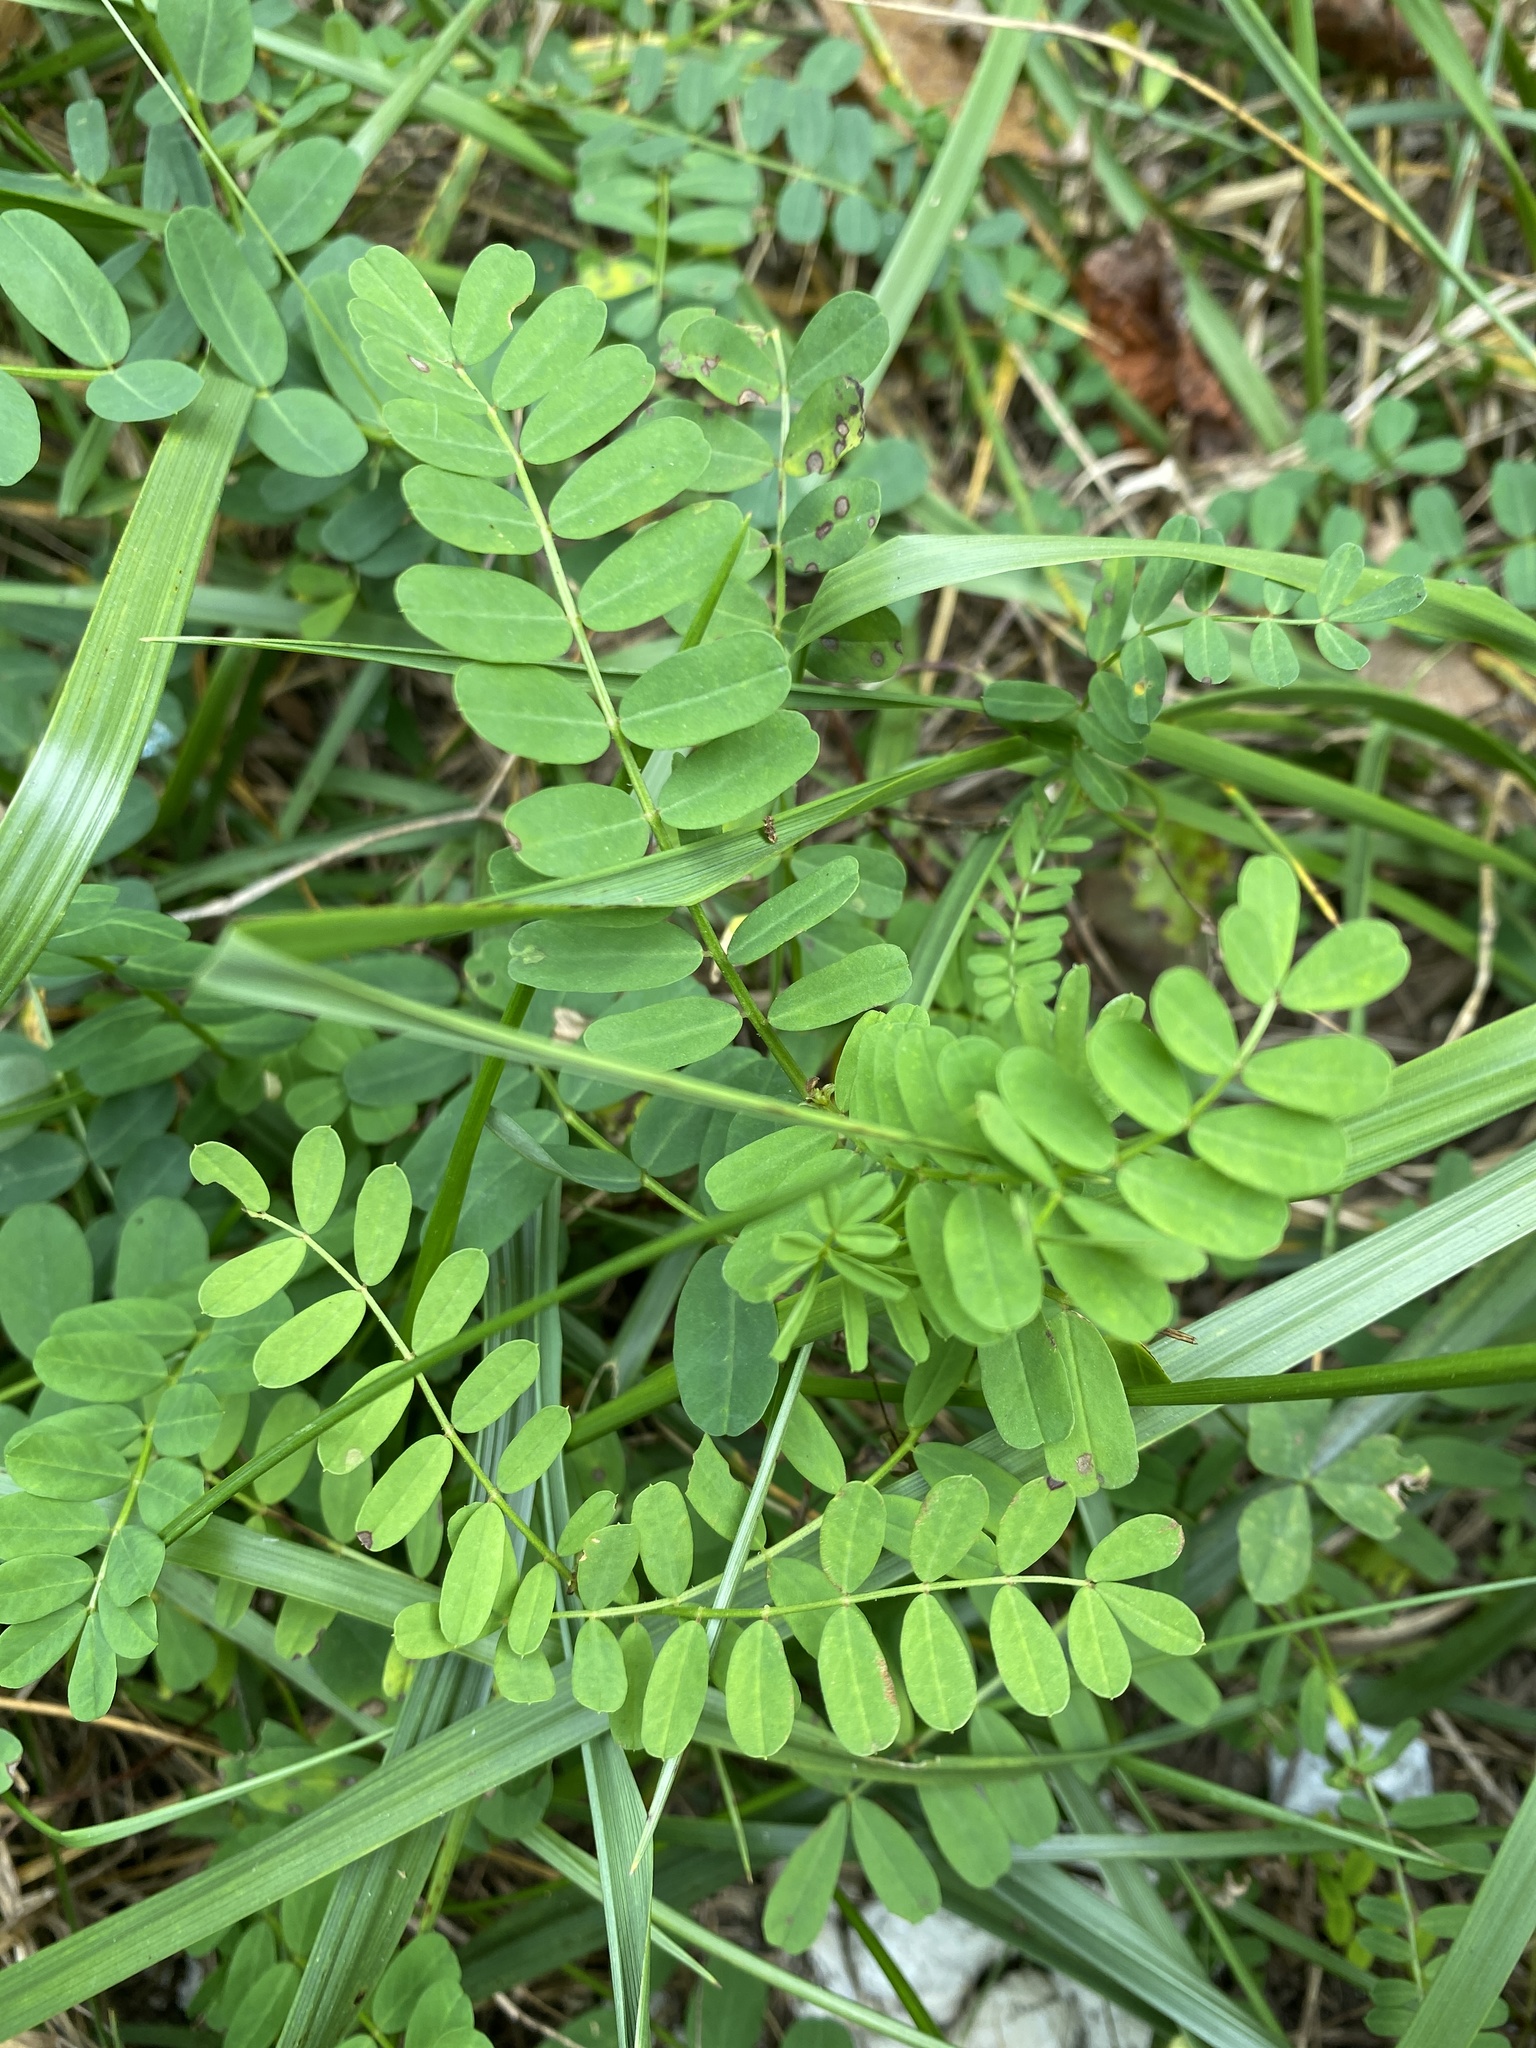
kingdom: Plantae
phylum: Tracheophyta
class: Magnoliopsida
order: Fabales
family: Fabaceae
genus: Coronilla
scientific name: Coronilla varia
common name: Crownvetch
